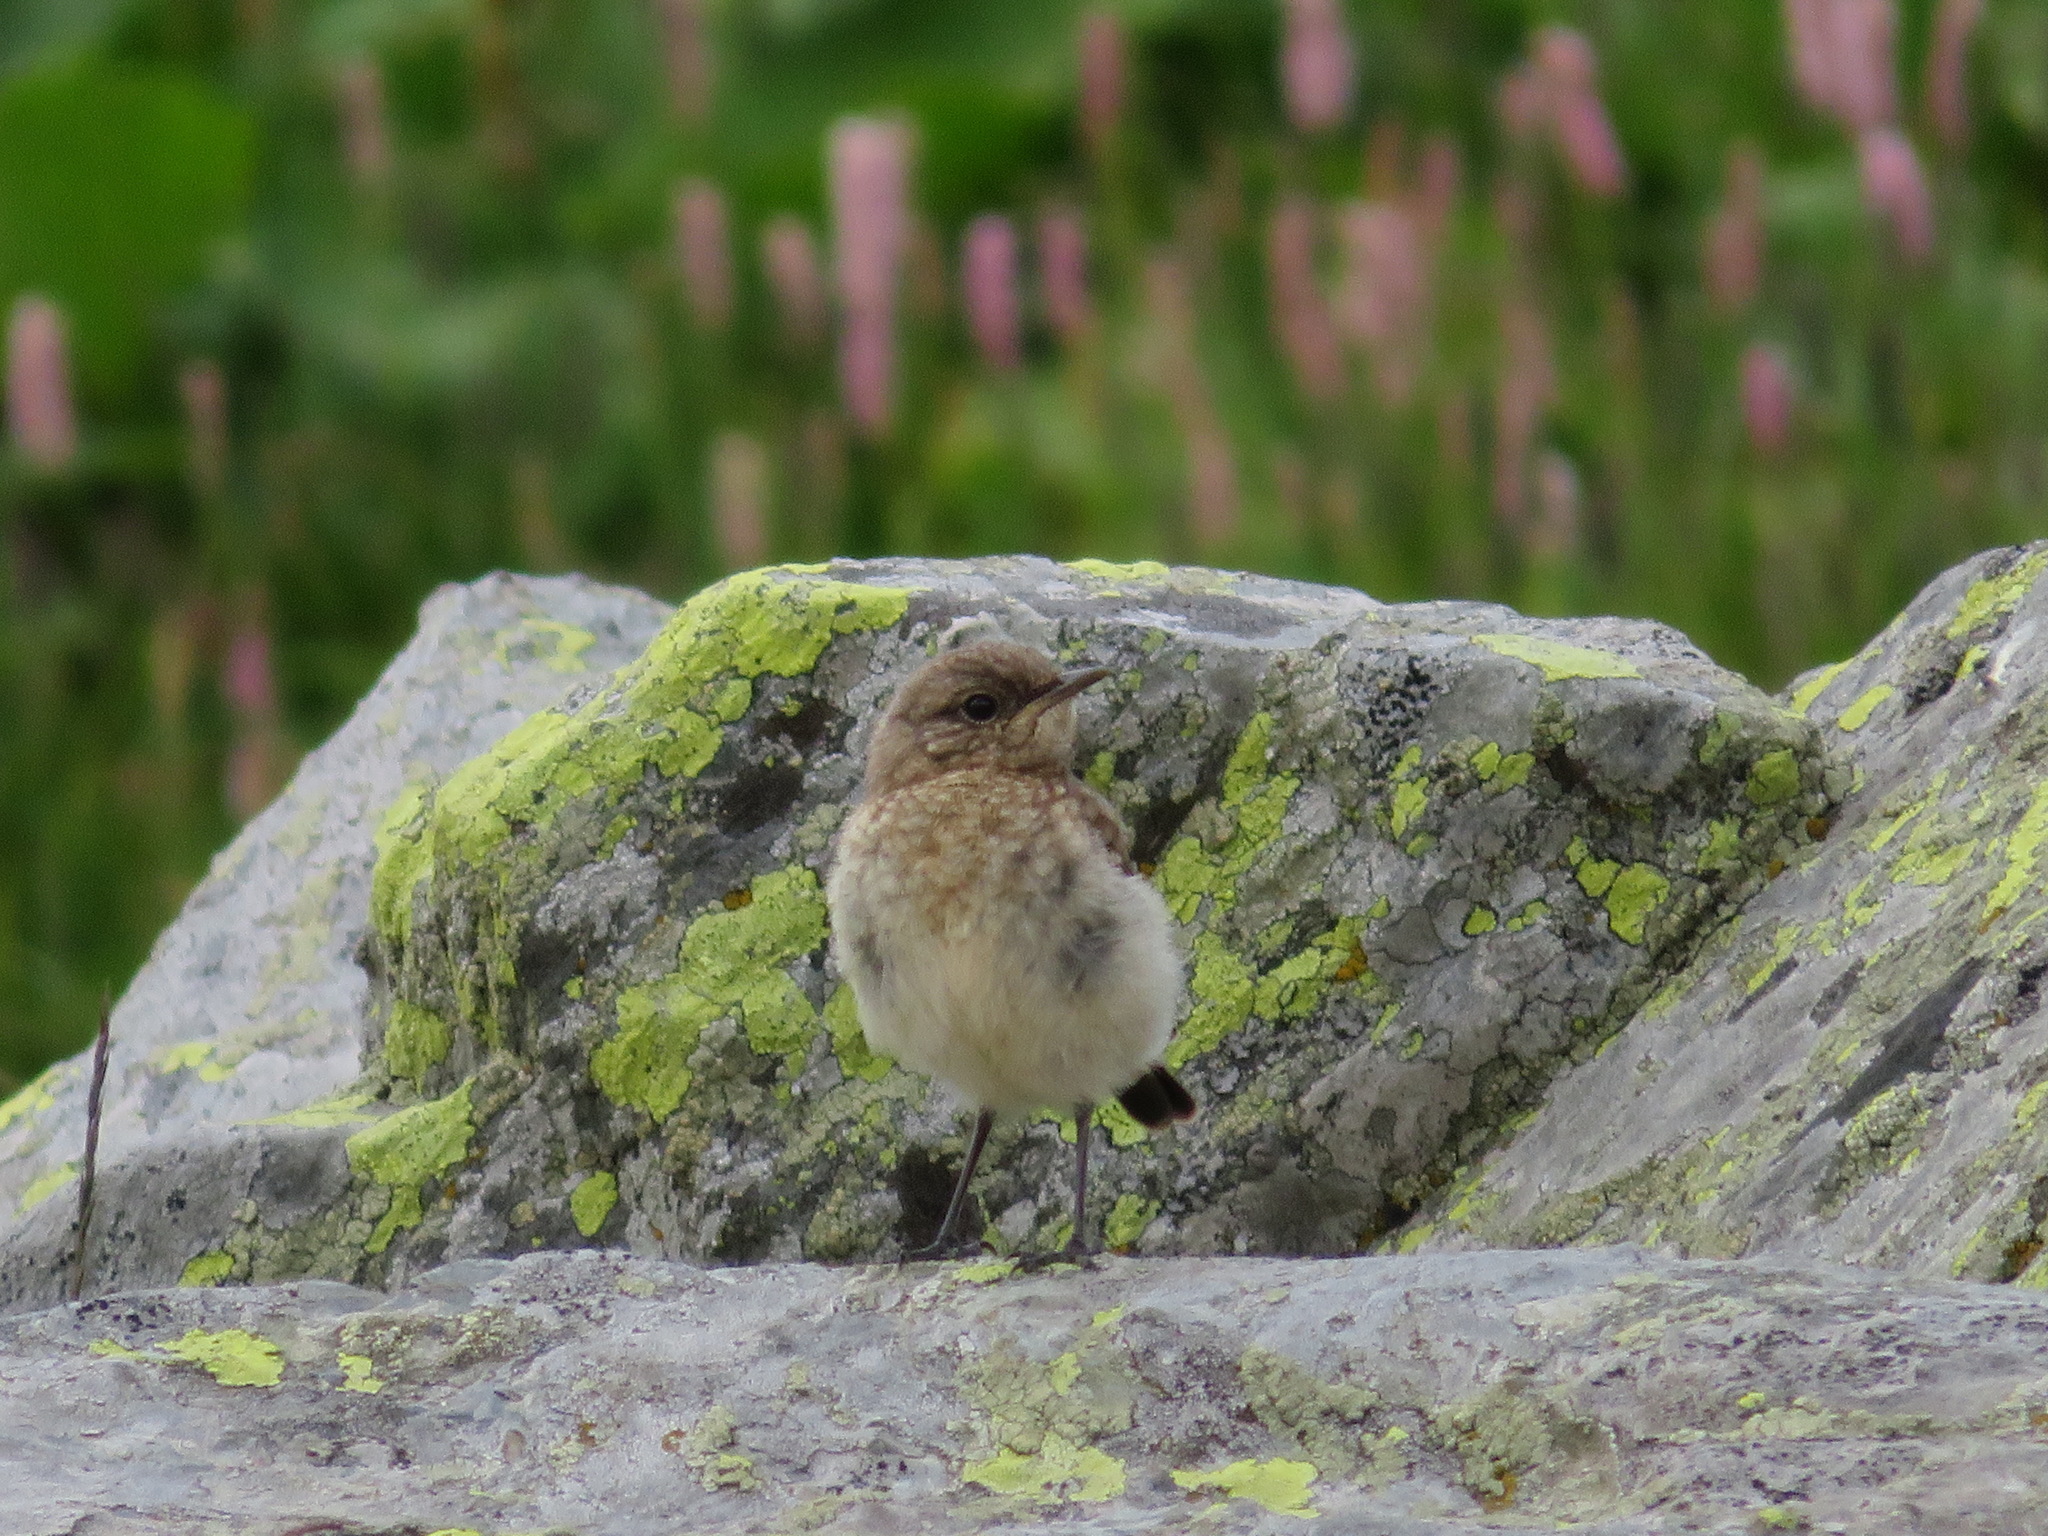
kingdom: Animalia
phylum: Chordata
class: Aves
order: Passeriformes
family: Muscicapidae
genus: Oenanthe
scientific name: Oenanthe oenanthe
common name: Northern wheatear
